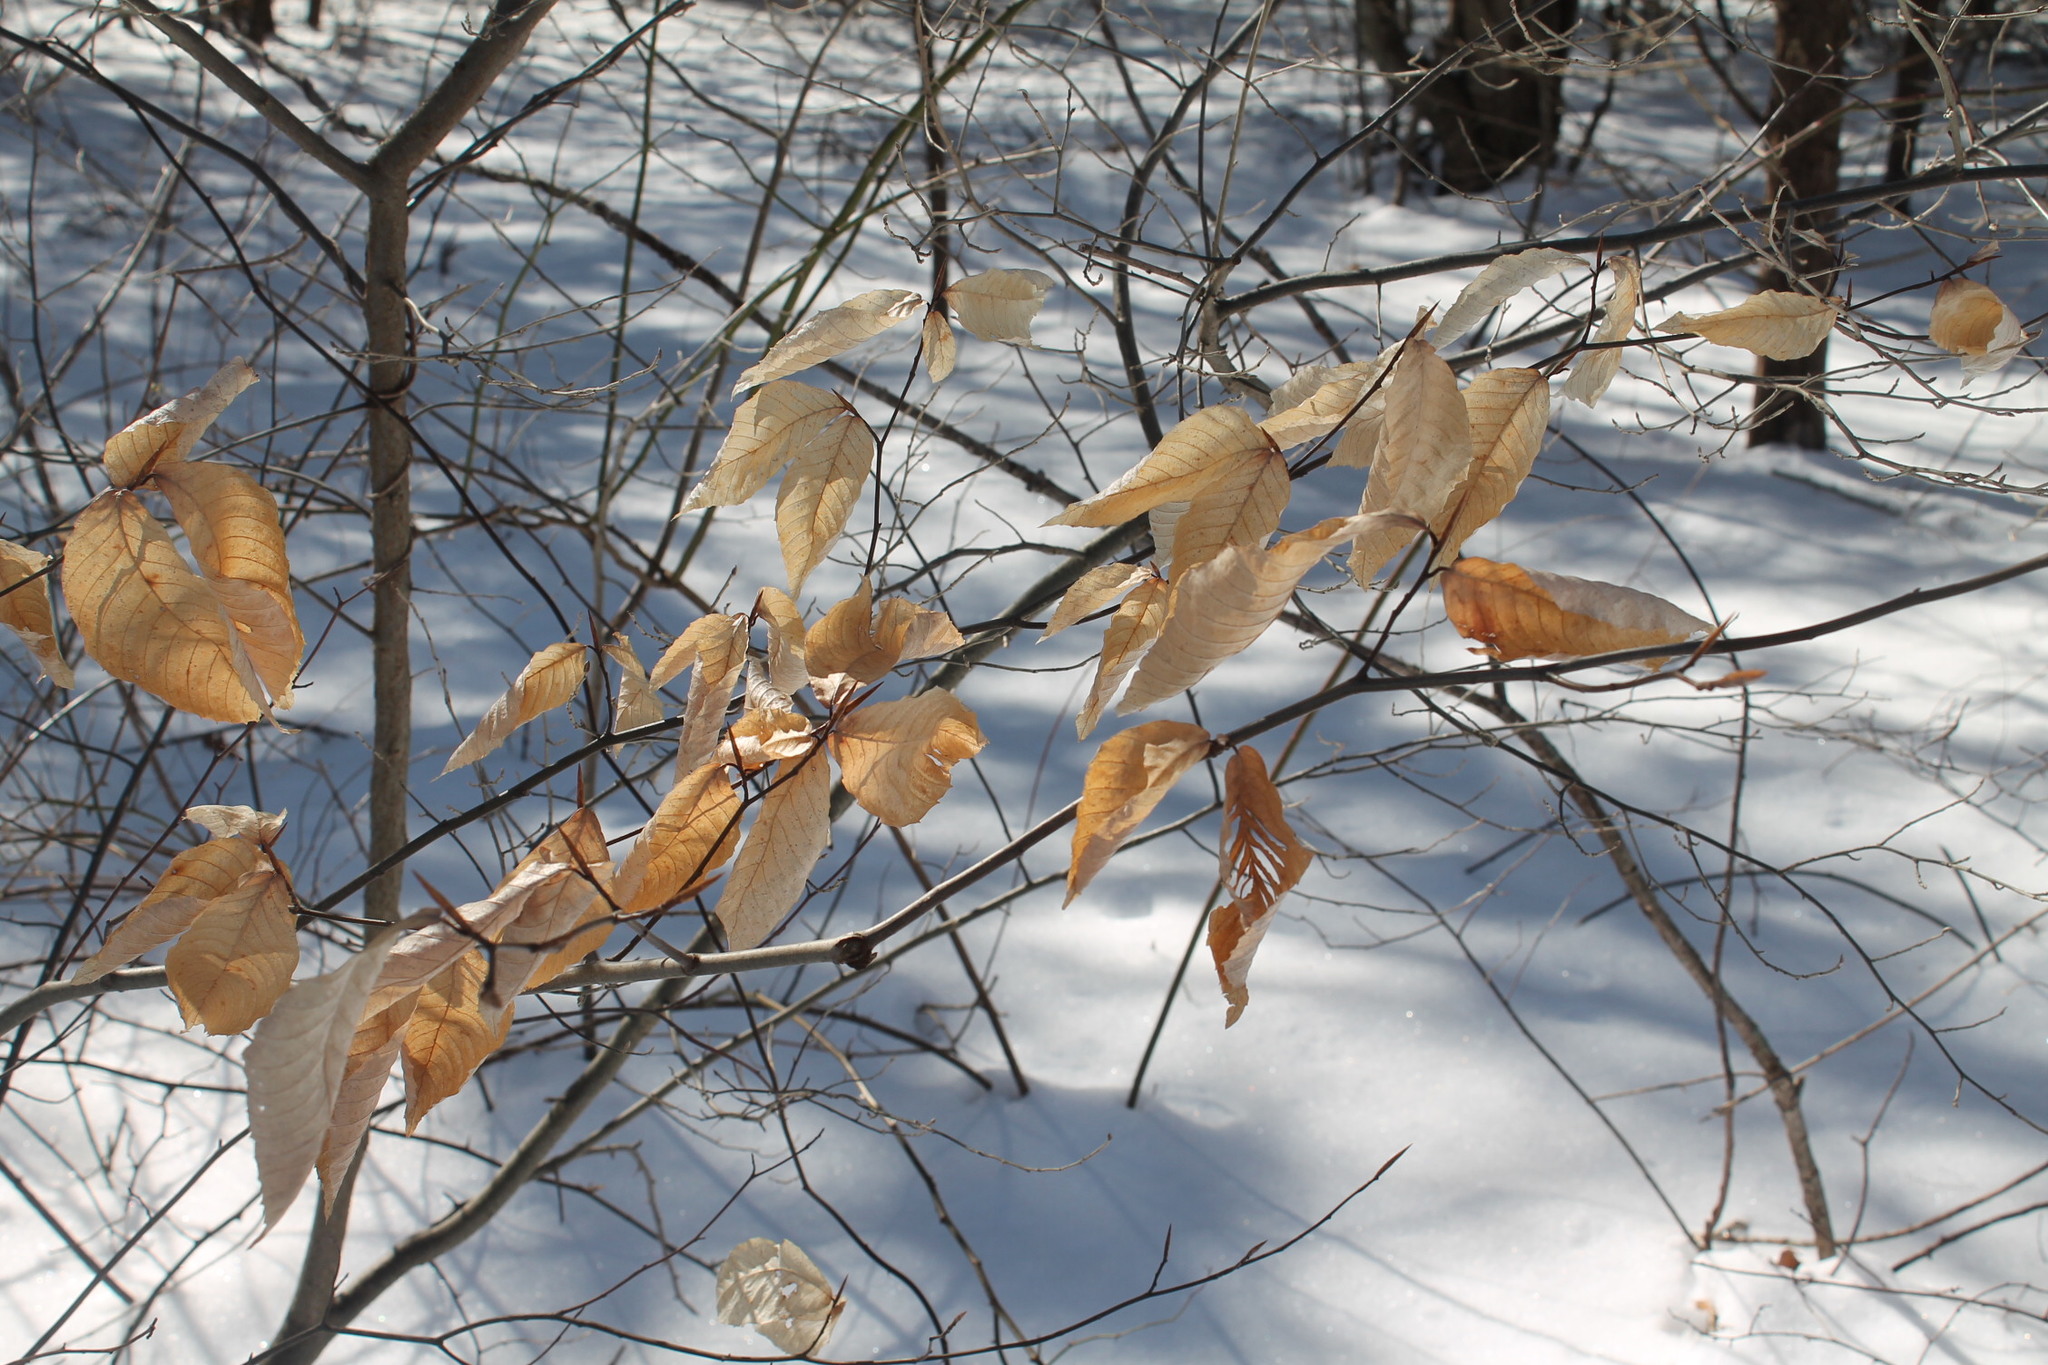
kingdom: Plantae
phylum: Tracheophyta
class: Magnoliopsida
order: Fagales
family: Fagaceae
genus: Fagus
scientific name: Fagus grandifolia
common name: American beech
